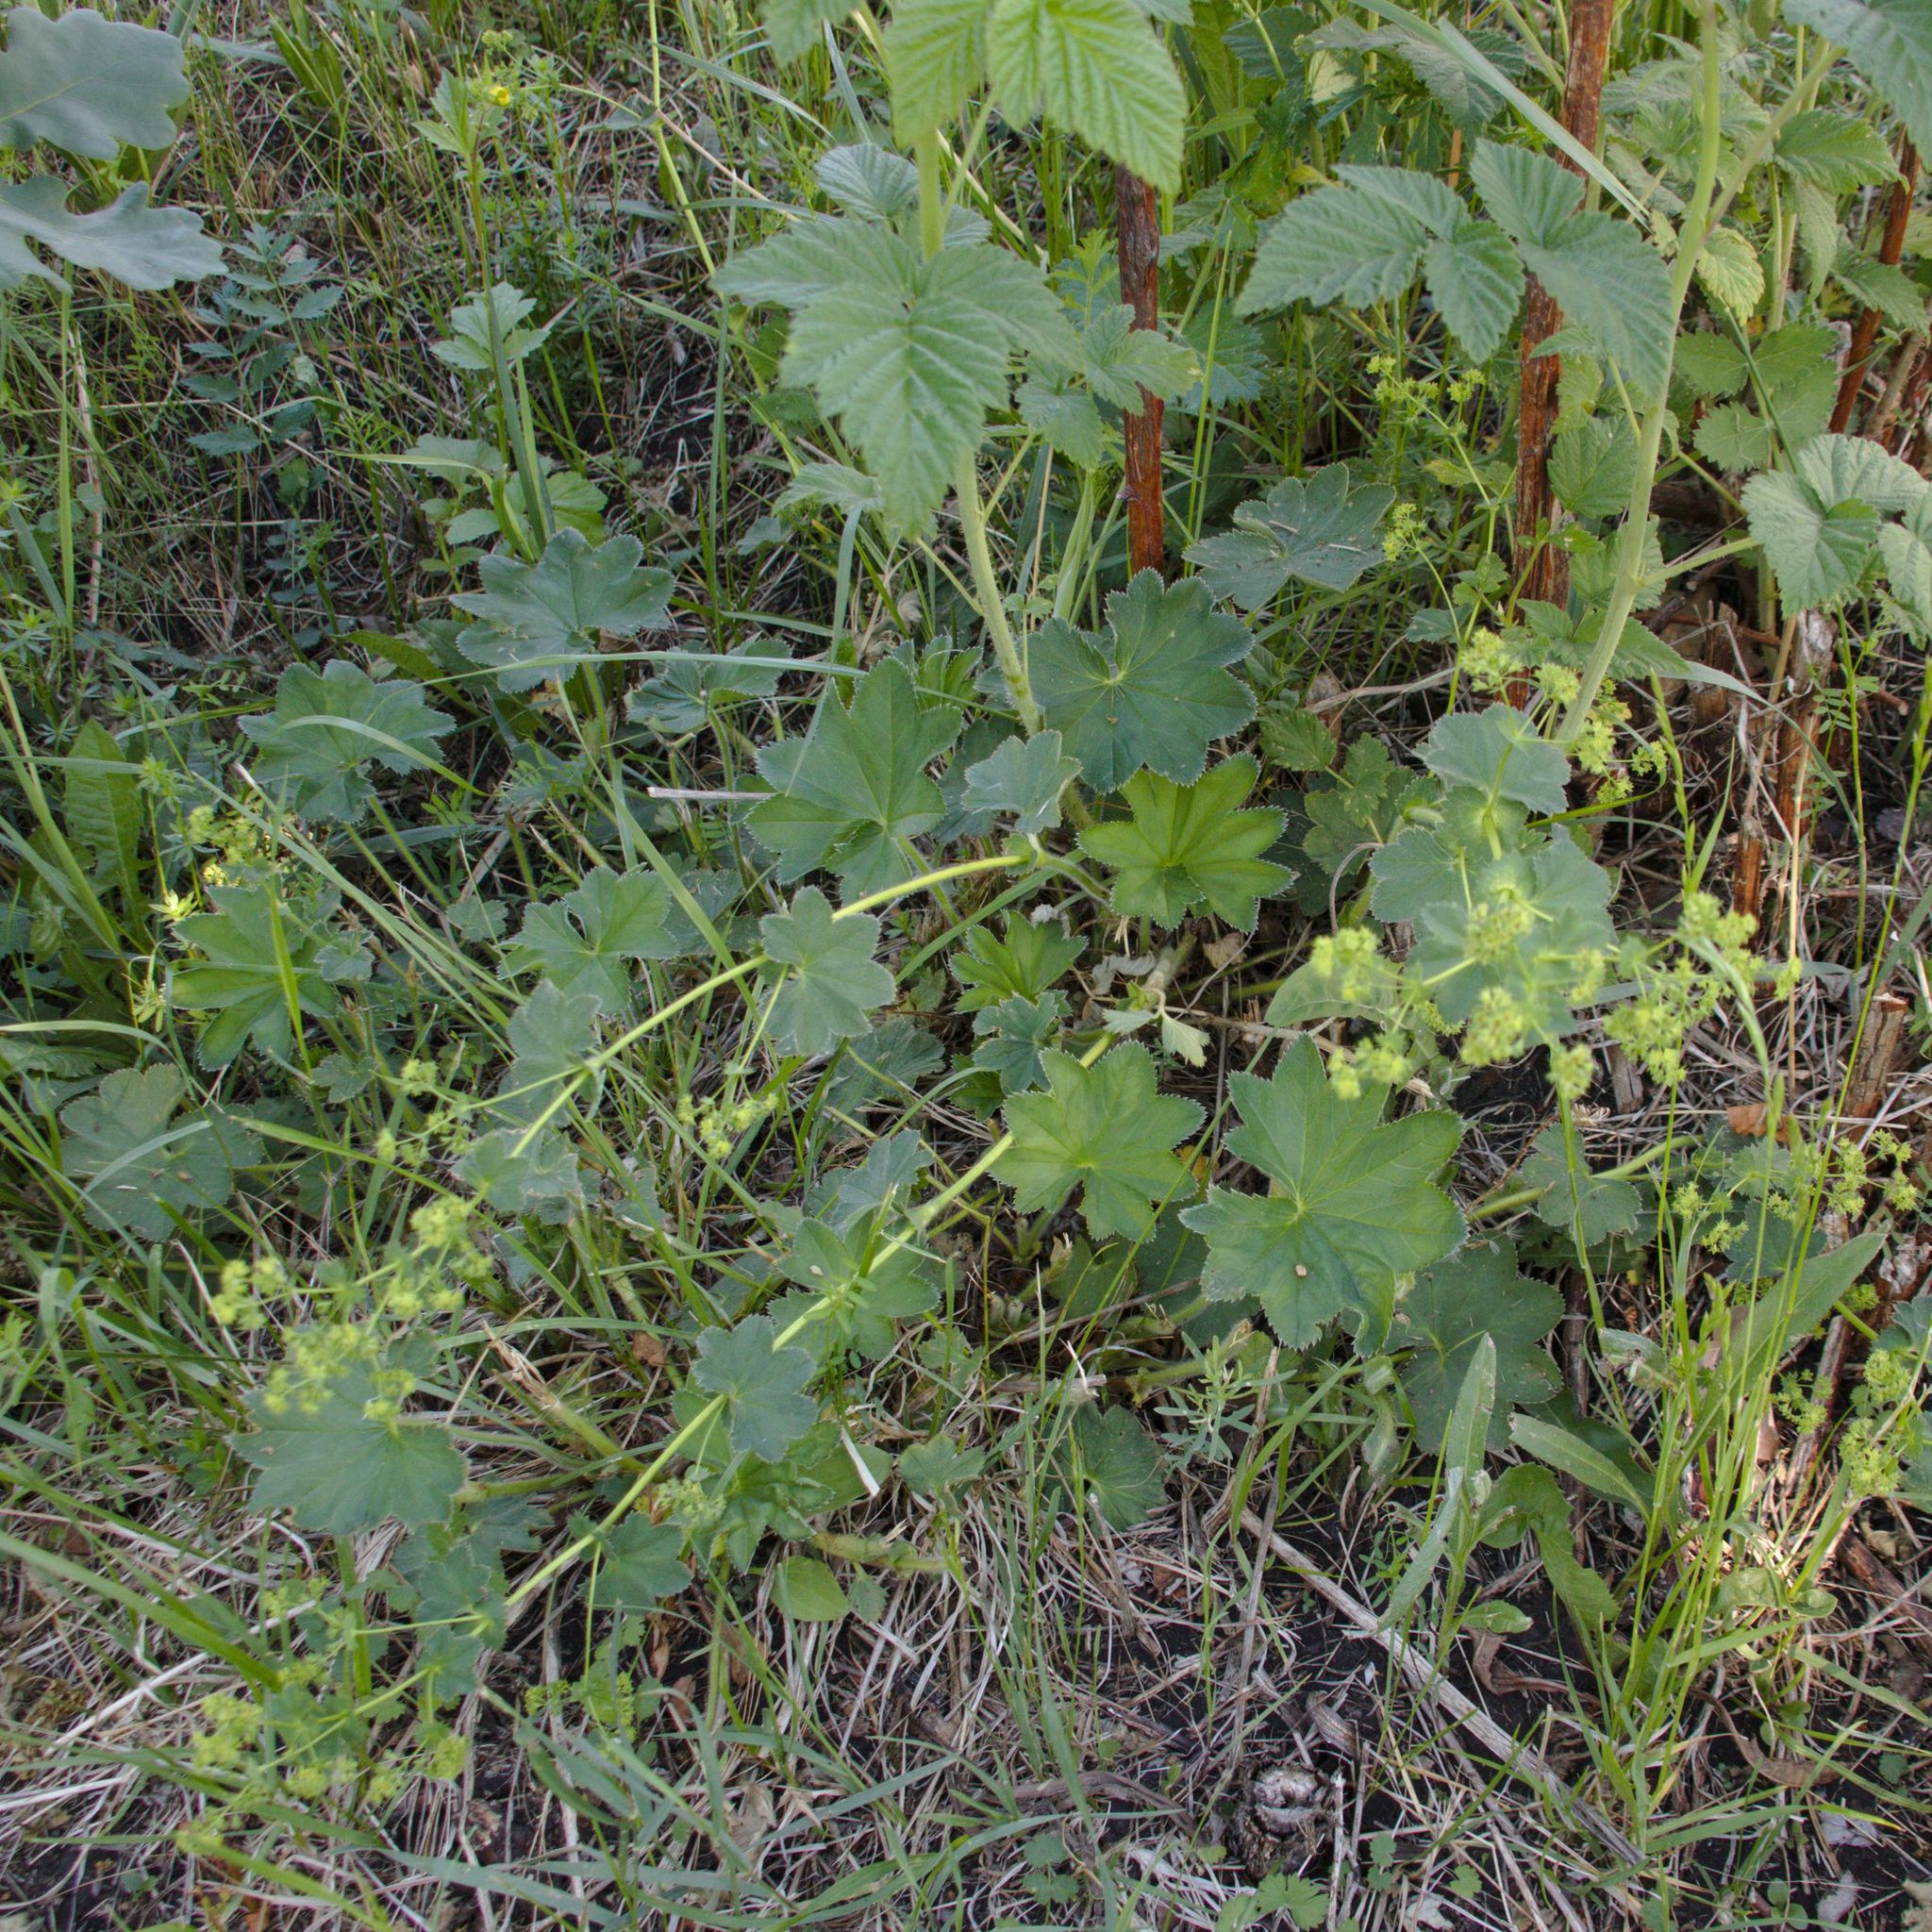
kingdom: Plantae
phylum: Tracheophyta
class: Magnoliopsida
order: Rosales
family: Rosaceae
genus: Alchemilla
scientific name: Alchemilla lindbergiana
